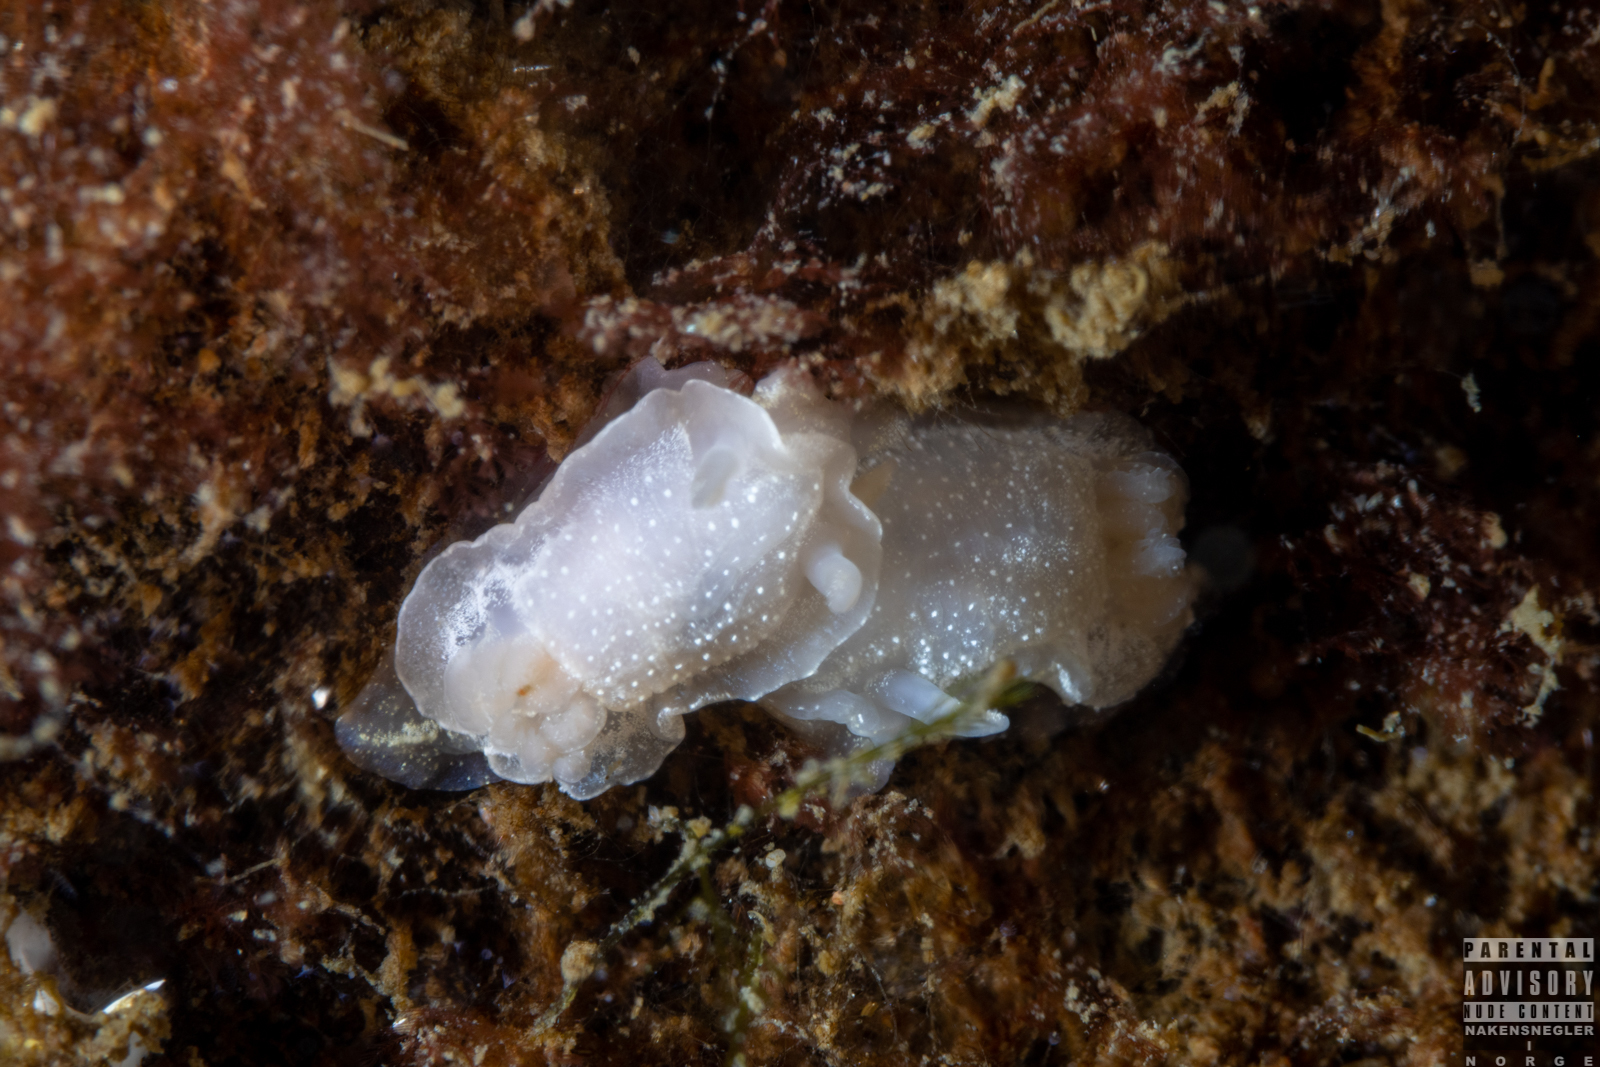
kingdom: Animalia
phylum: Mollusca
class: Gastropoda
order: Nudibranchia
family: Goniodorididae
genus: Okenia
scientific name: Okenia
